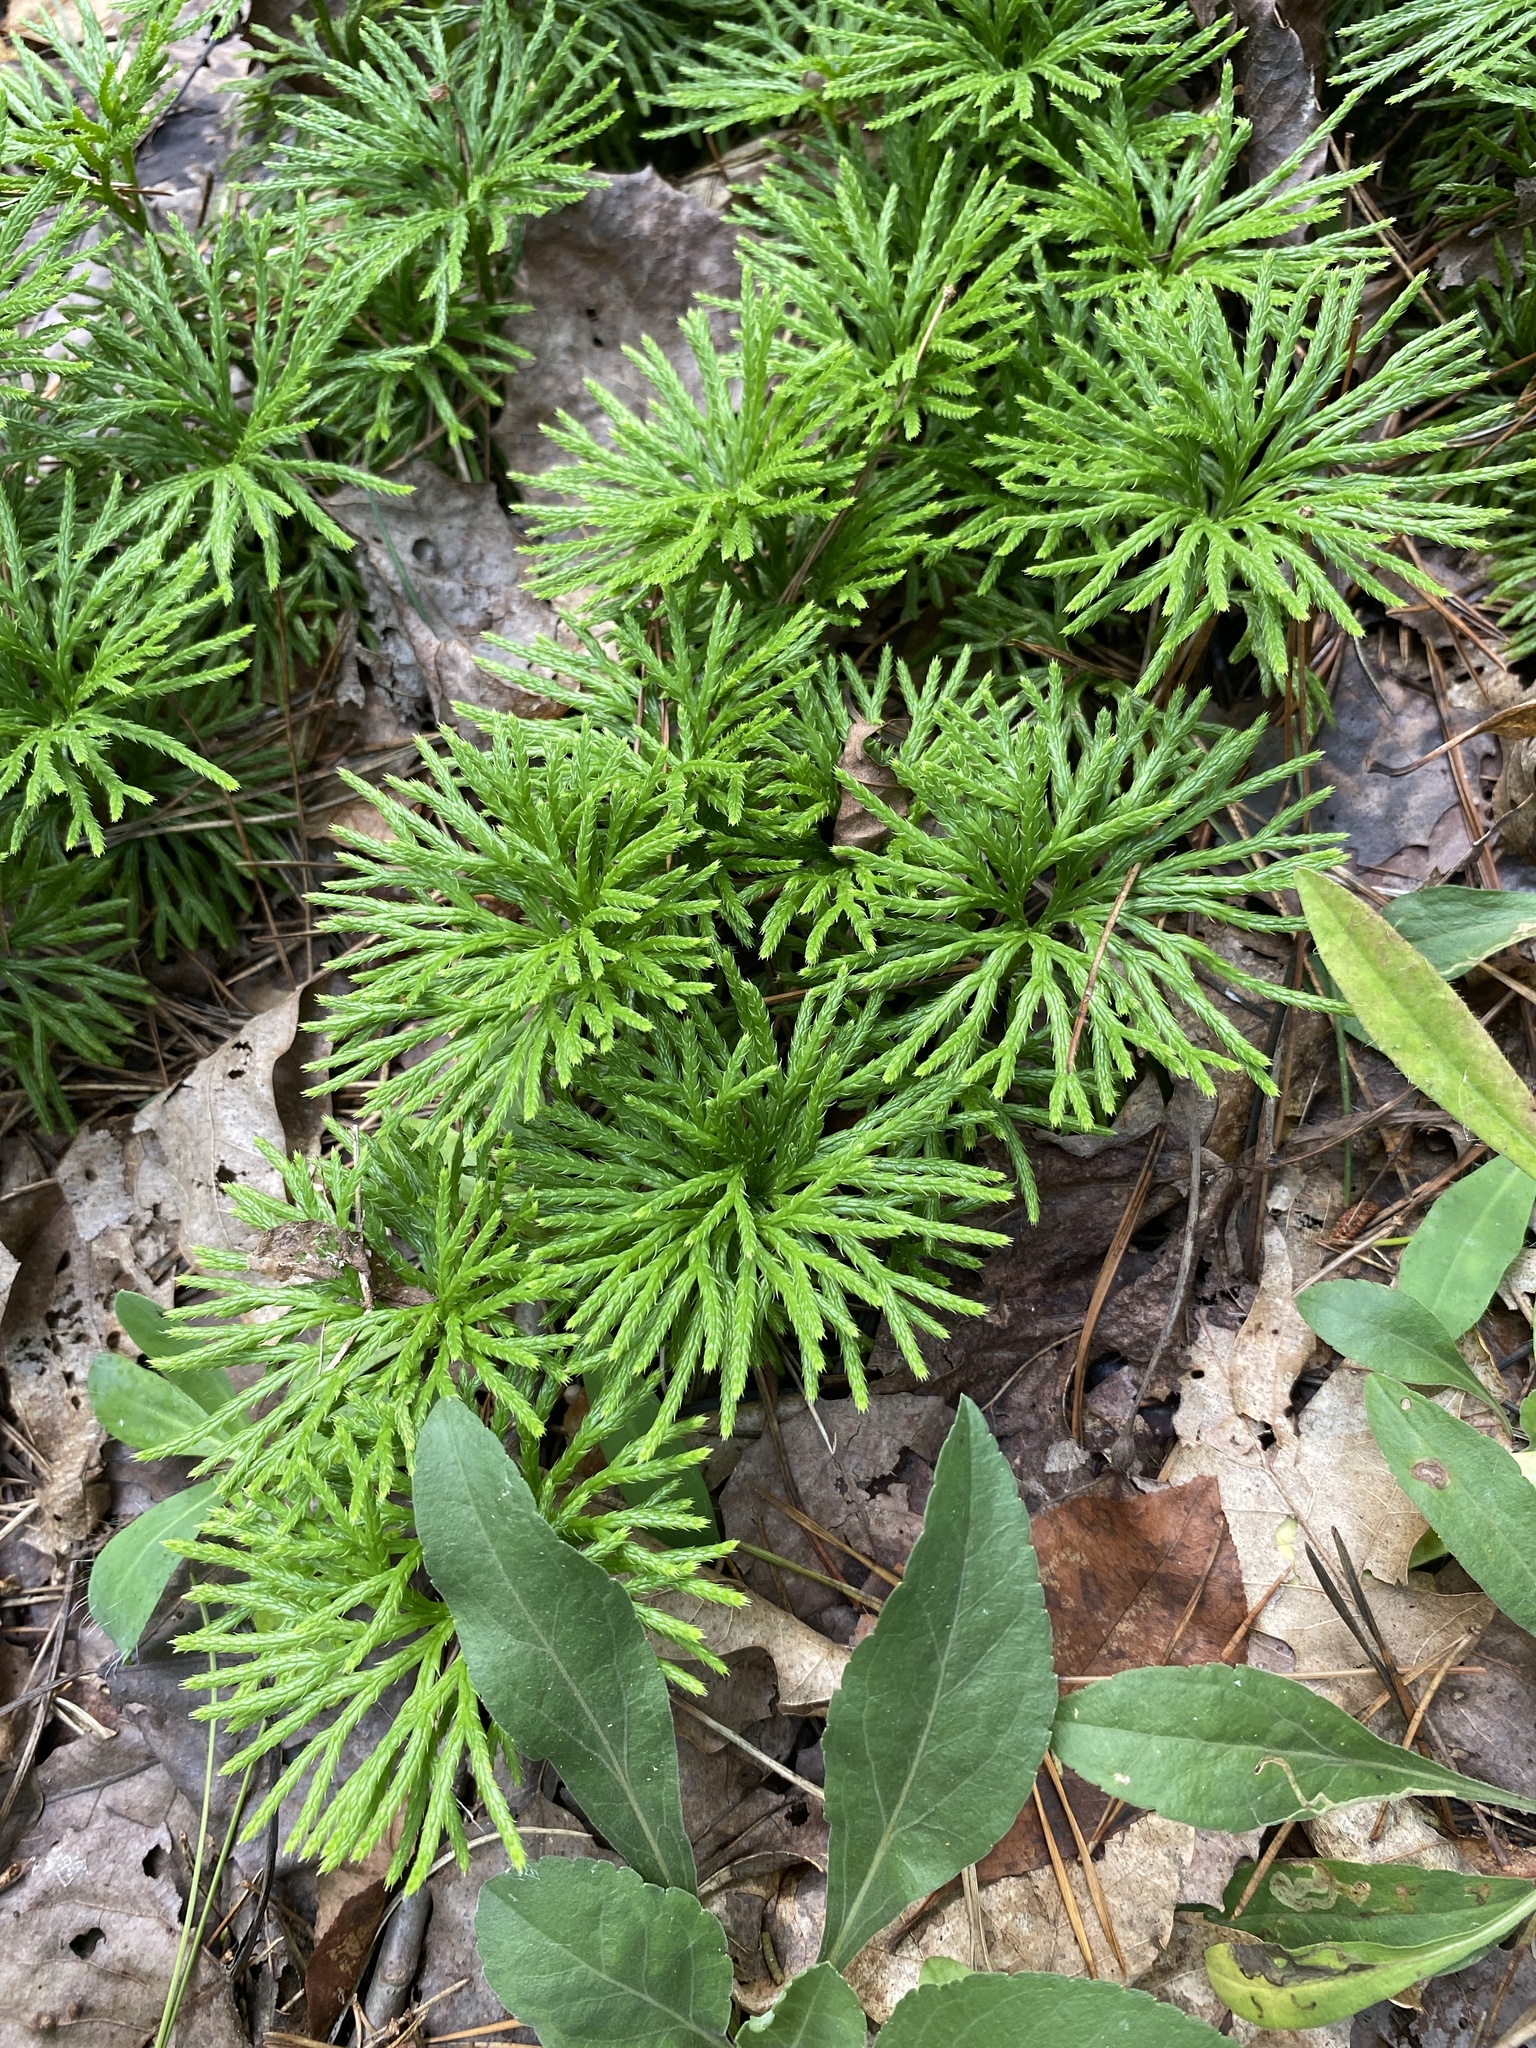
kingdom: Plantae
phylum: Tracheophyta
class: Lycopodiopsida
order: Lycopodiales
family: Lycopodiaceae
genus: Diphasiastrum
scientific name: Diphasiastrum digitatum
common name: Southern running-pine
